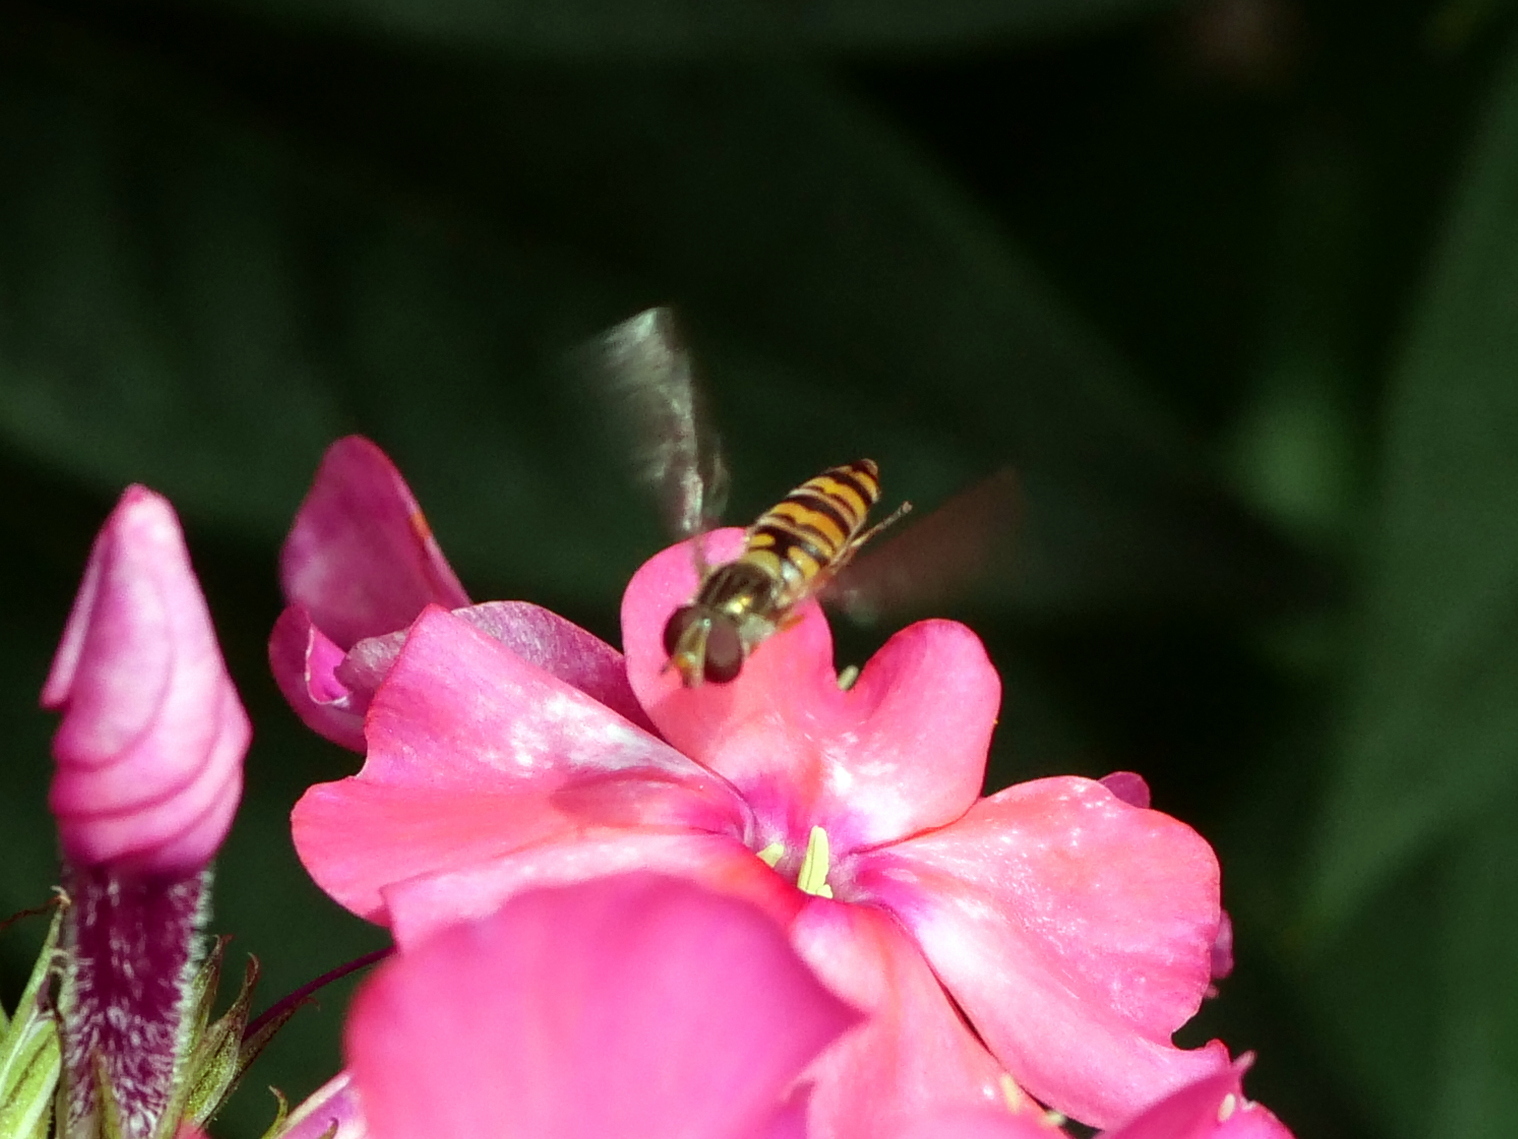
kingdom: Animalia
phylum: Arthropoda
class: Insecta
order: Diptera
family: Syrphidae
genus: Episyrphus
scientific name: Episyrphus balteatus
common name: Marmalade hoverfly
